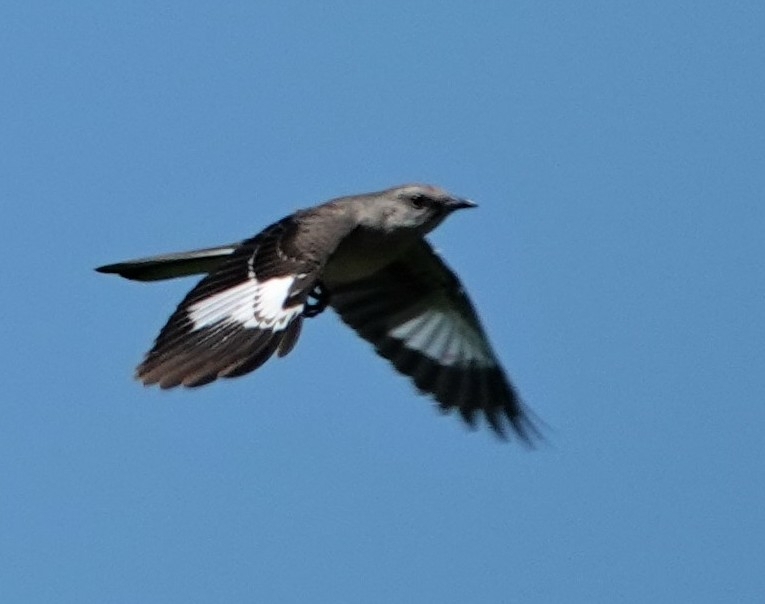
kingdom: Animalia
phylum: Chordata
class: Aves
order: Passeriformes
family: Mimidae
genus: Mimus
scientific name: Mimus polyglottos
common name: Northern mockingbird
